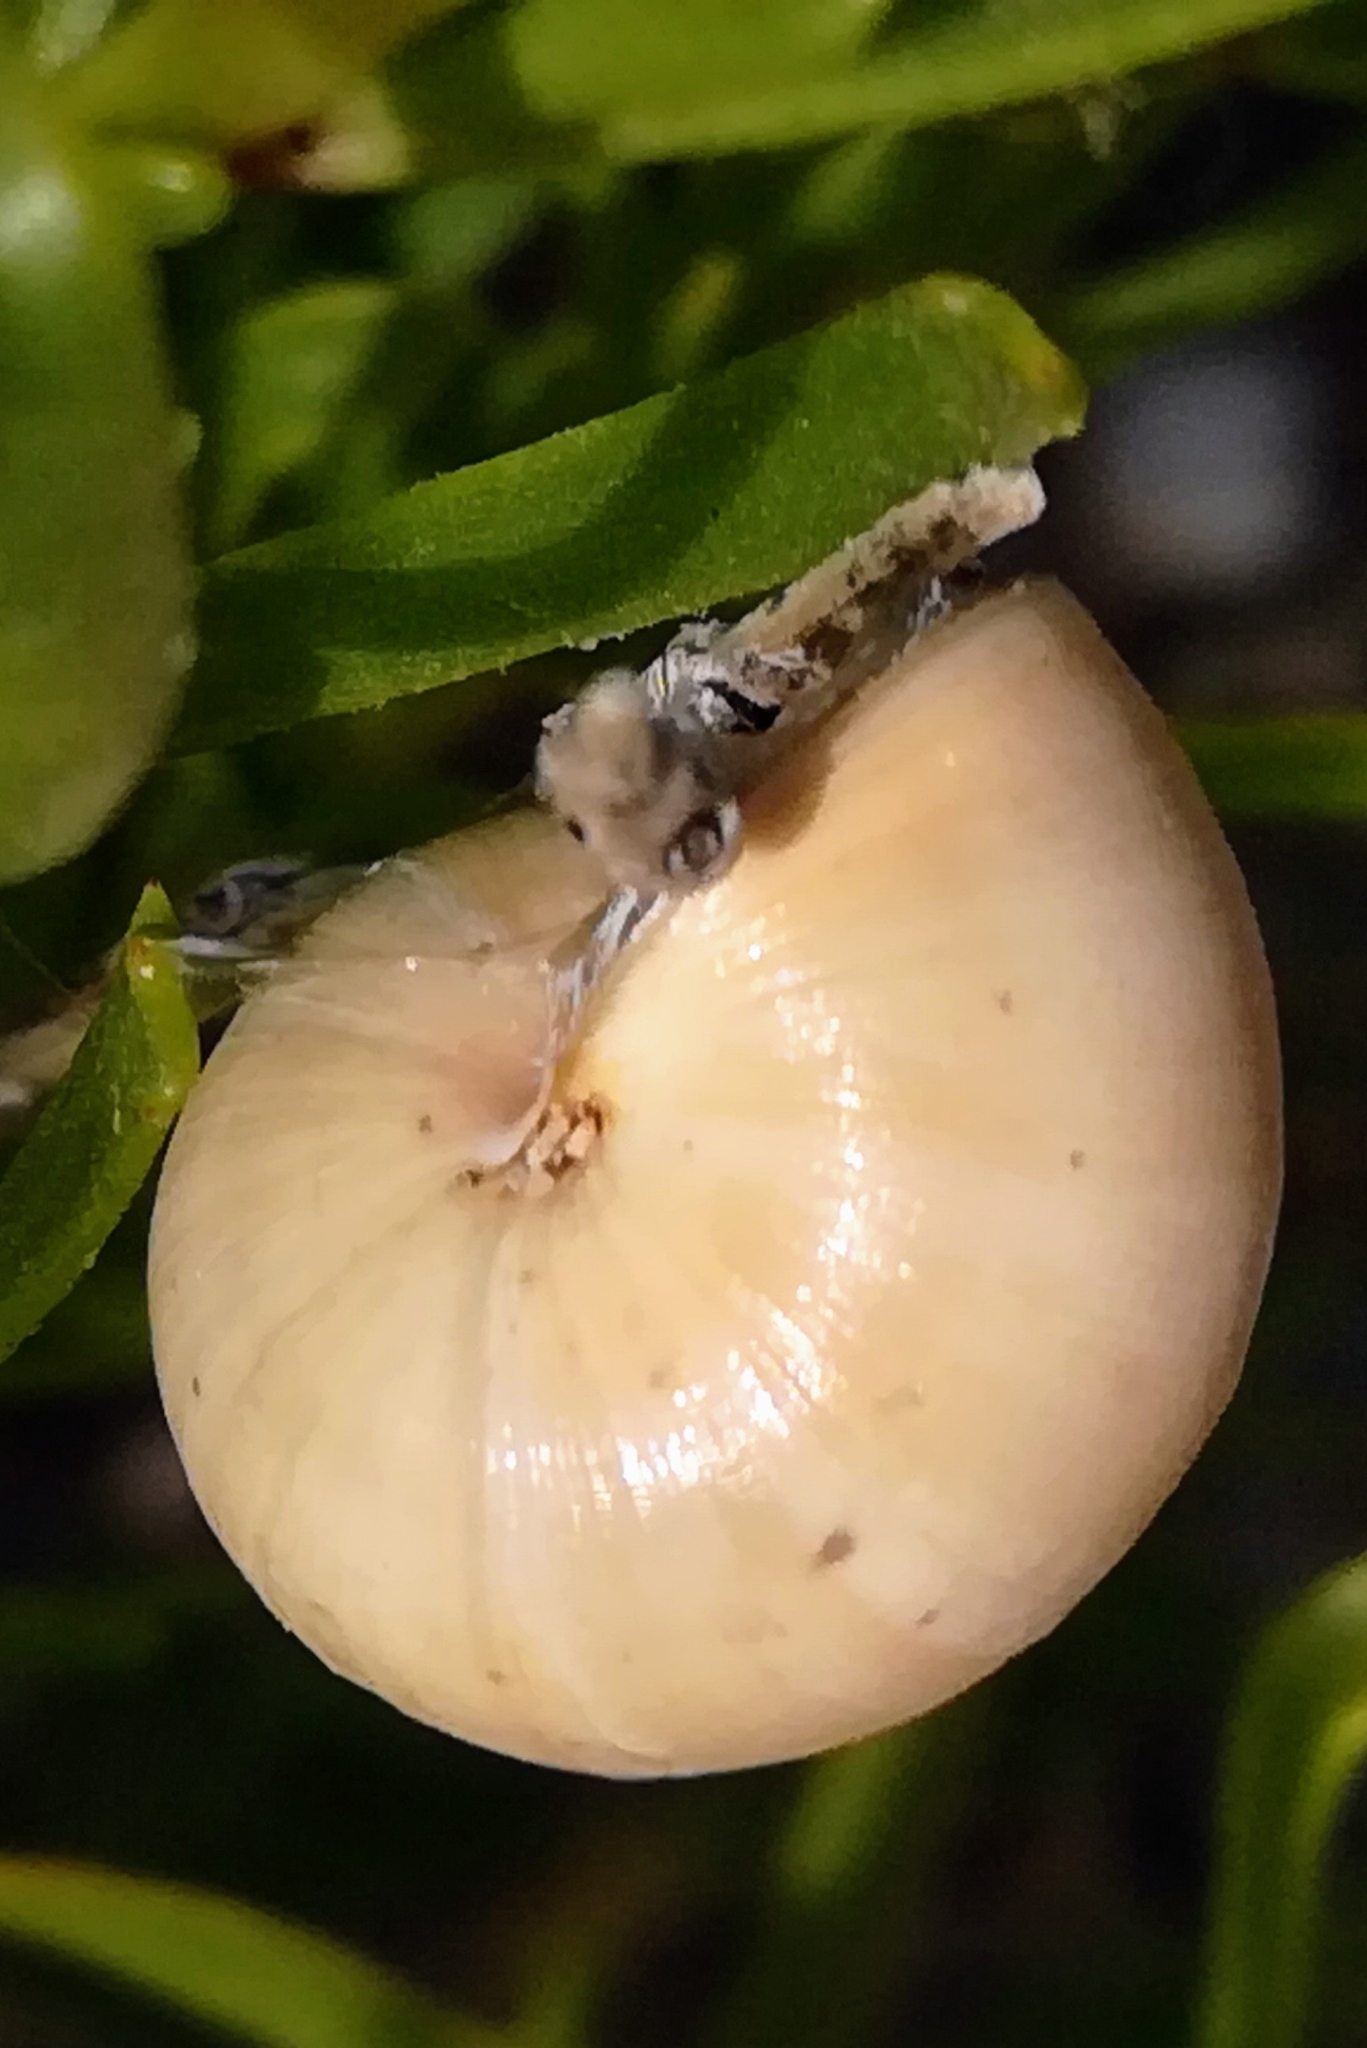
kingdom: Animalia
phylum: Mollusca
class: Gastropoda
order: Stylommatophora
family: Helicidae
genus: Theba
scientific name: Theba pisana
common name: White snail
